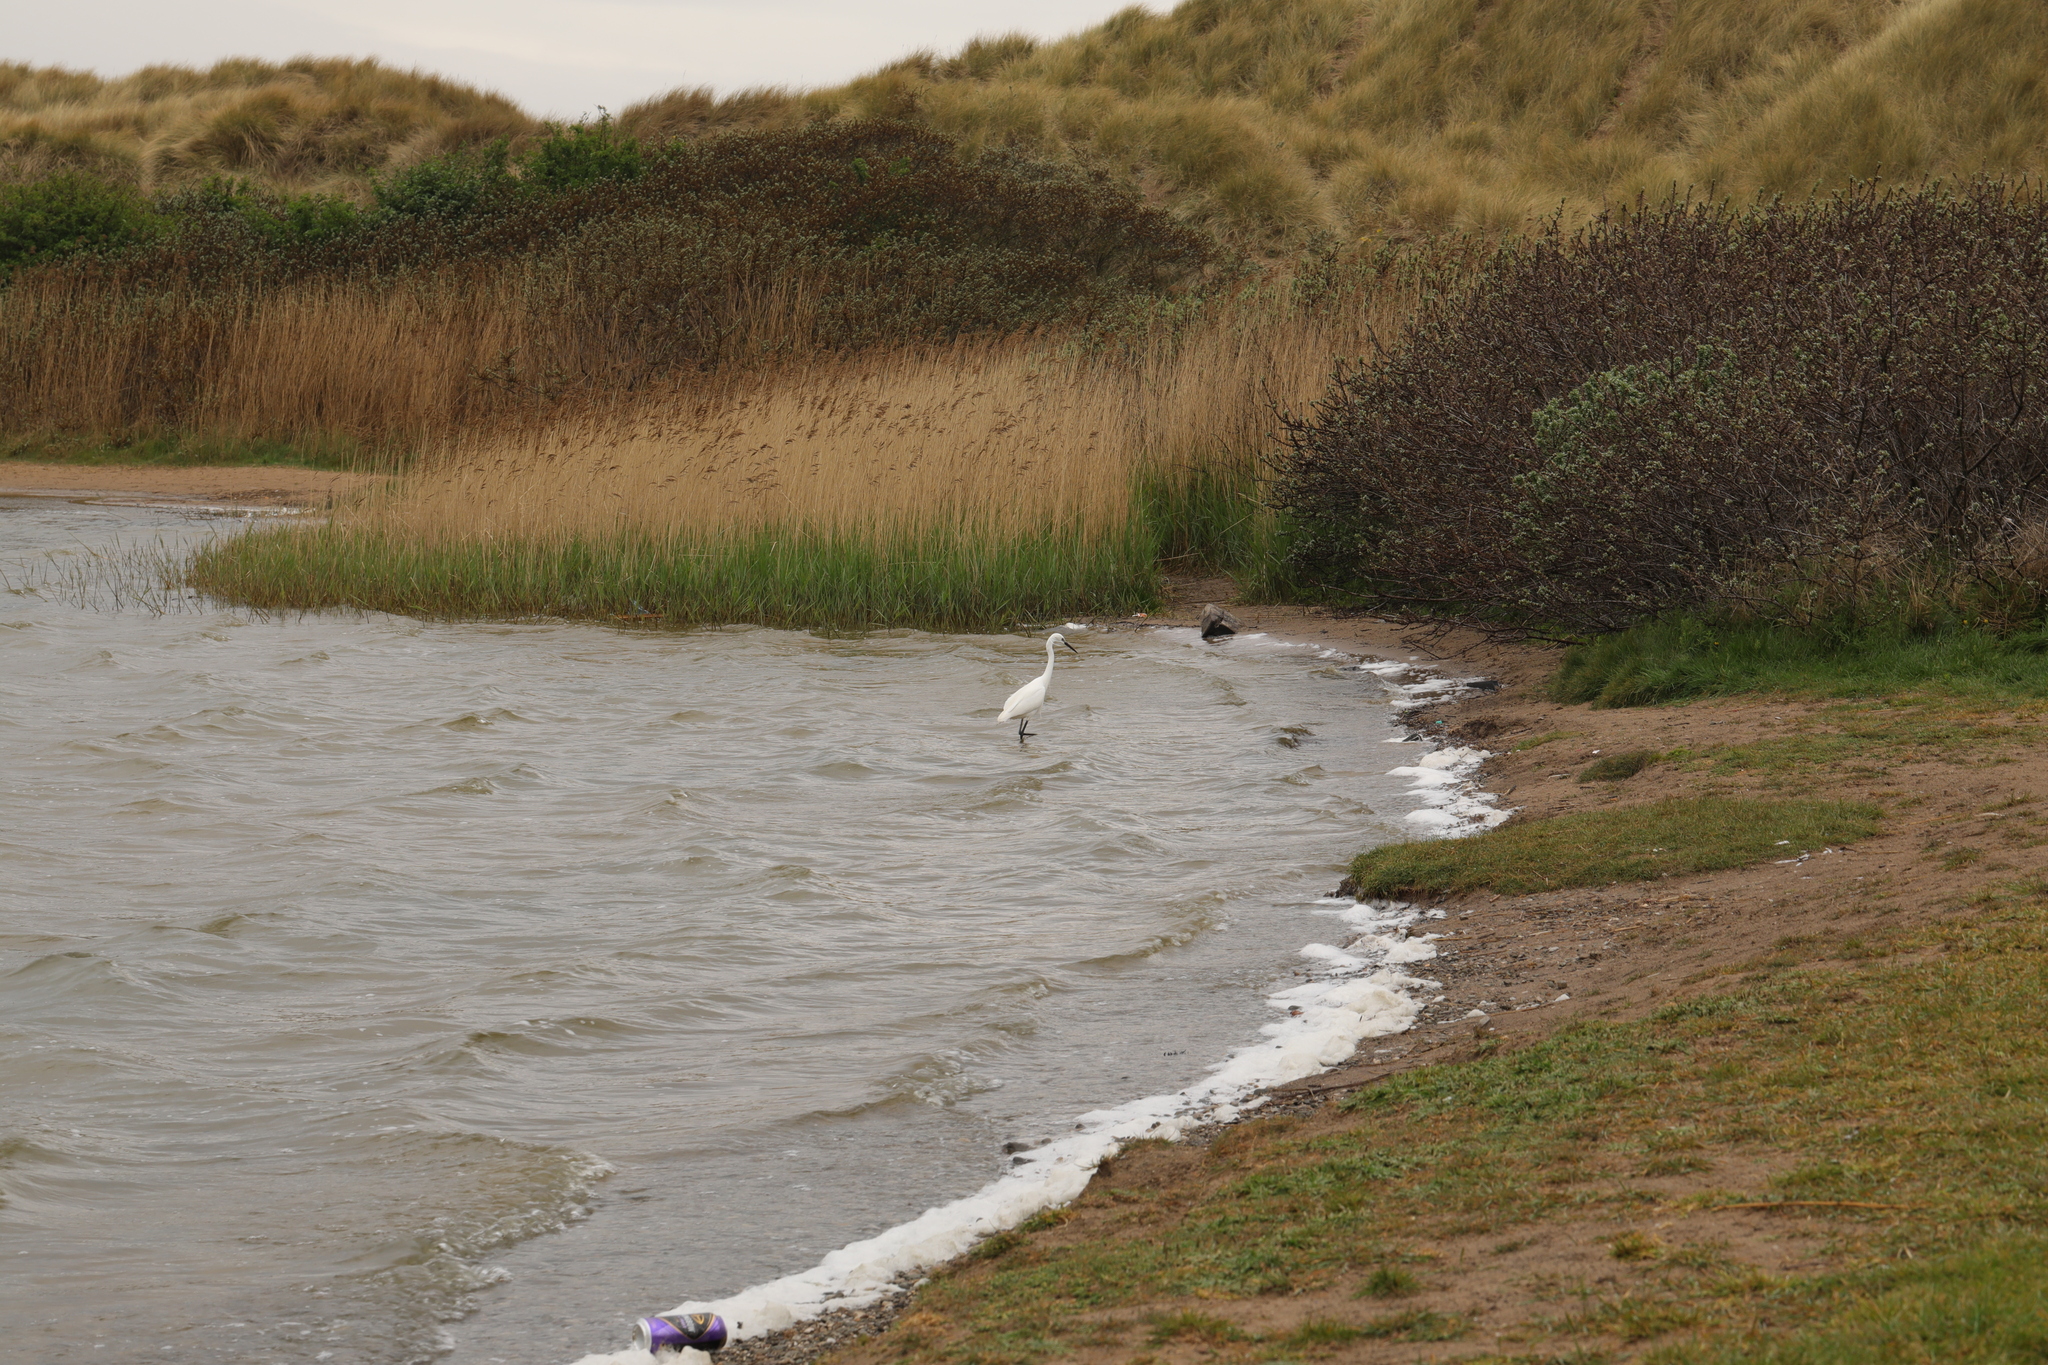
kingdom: Animalia
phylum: Chordata
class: Aves
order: Pelecaniformes
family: Ardeidae
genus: Egretta
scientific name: Egretta garzetta
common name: Little egret
